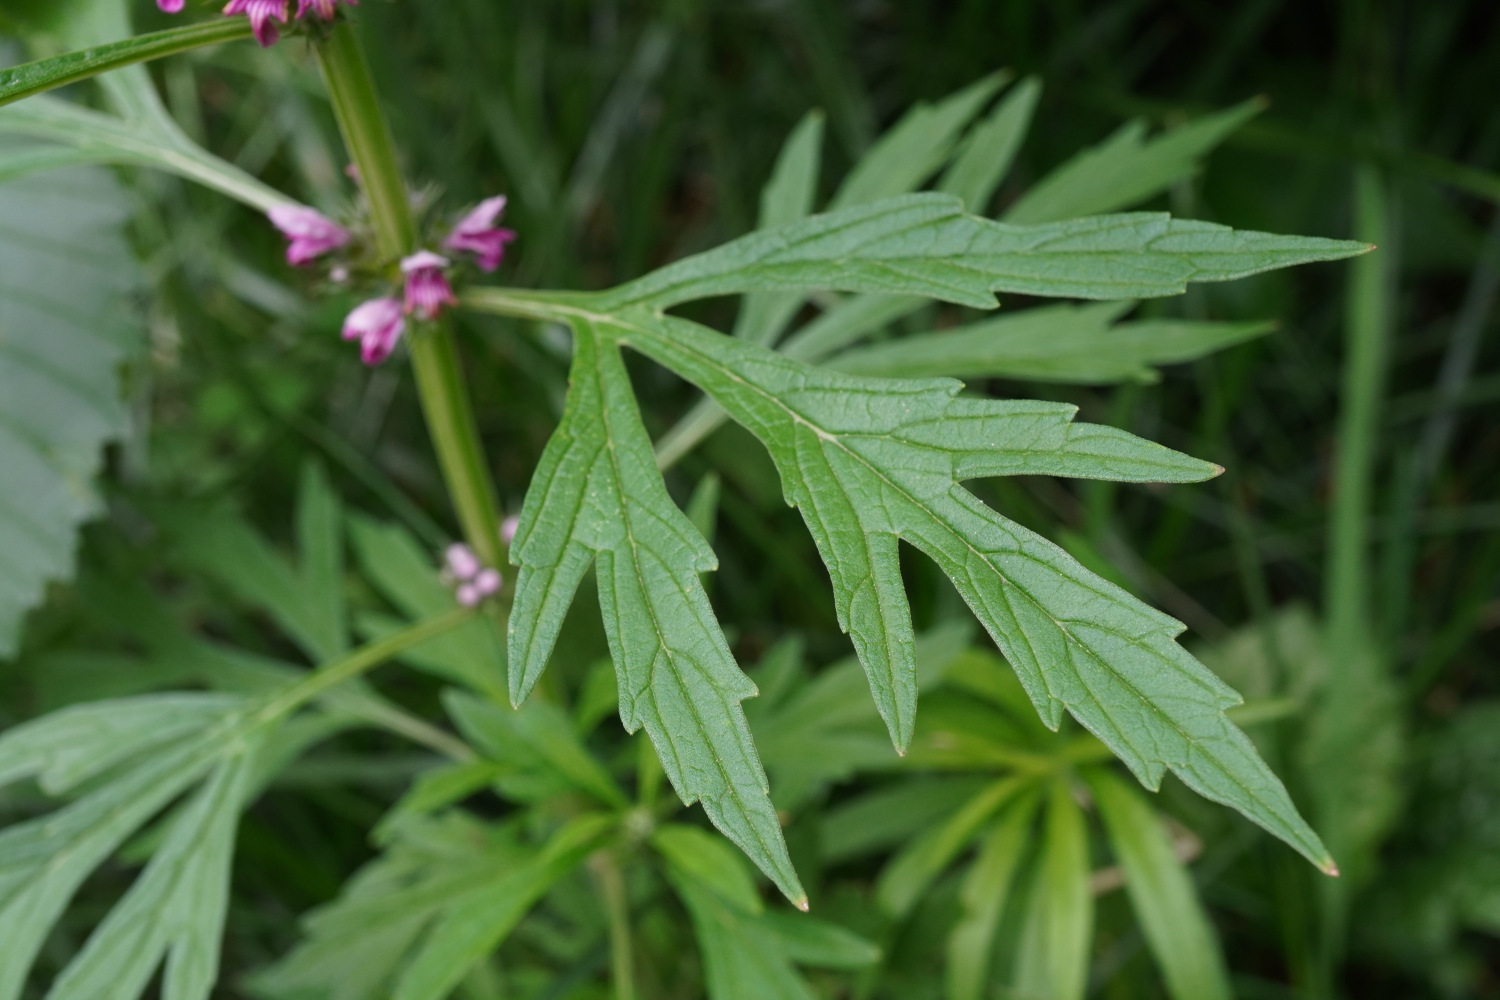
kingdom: Plantae
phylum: Tracheophyta
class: Magnoliopsida
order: Lamiales
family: Lamiaceae
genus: Leonurus
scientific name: Leonurus japonicus
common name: Honeyweed
